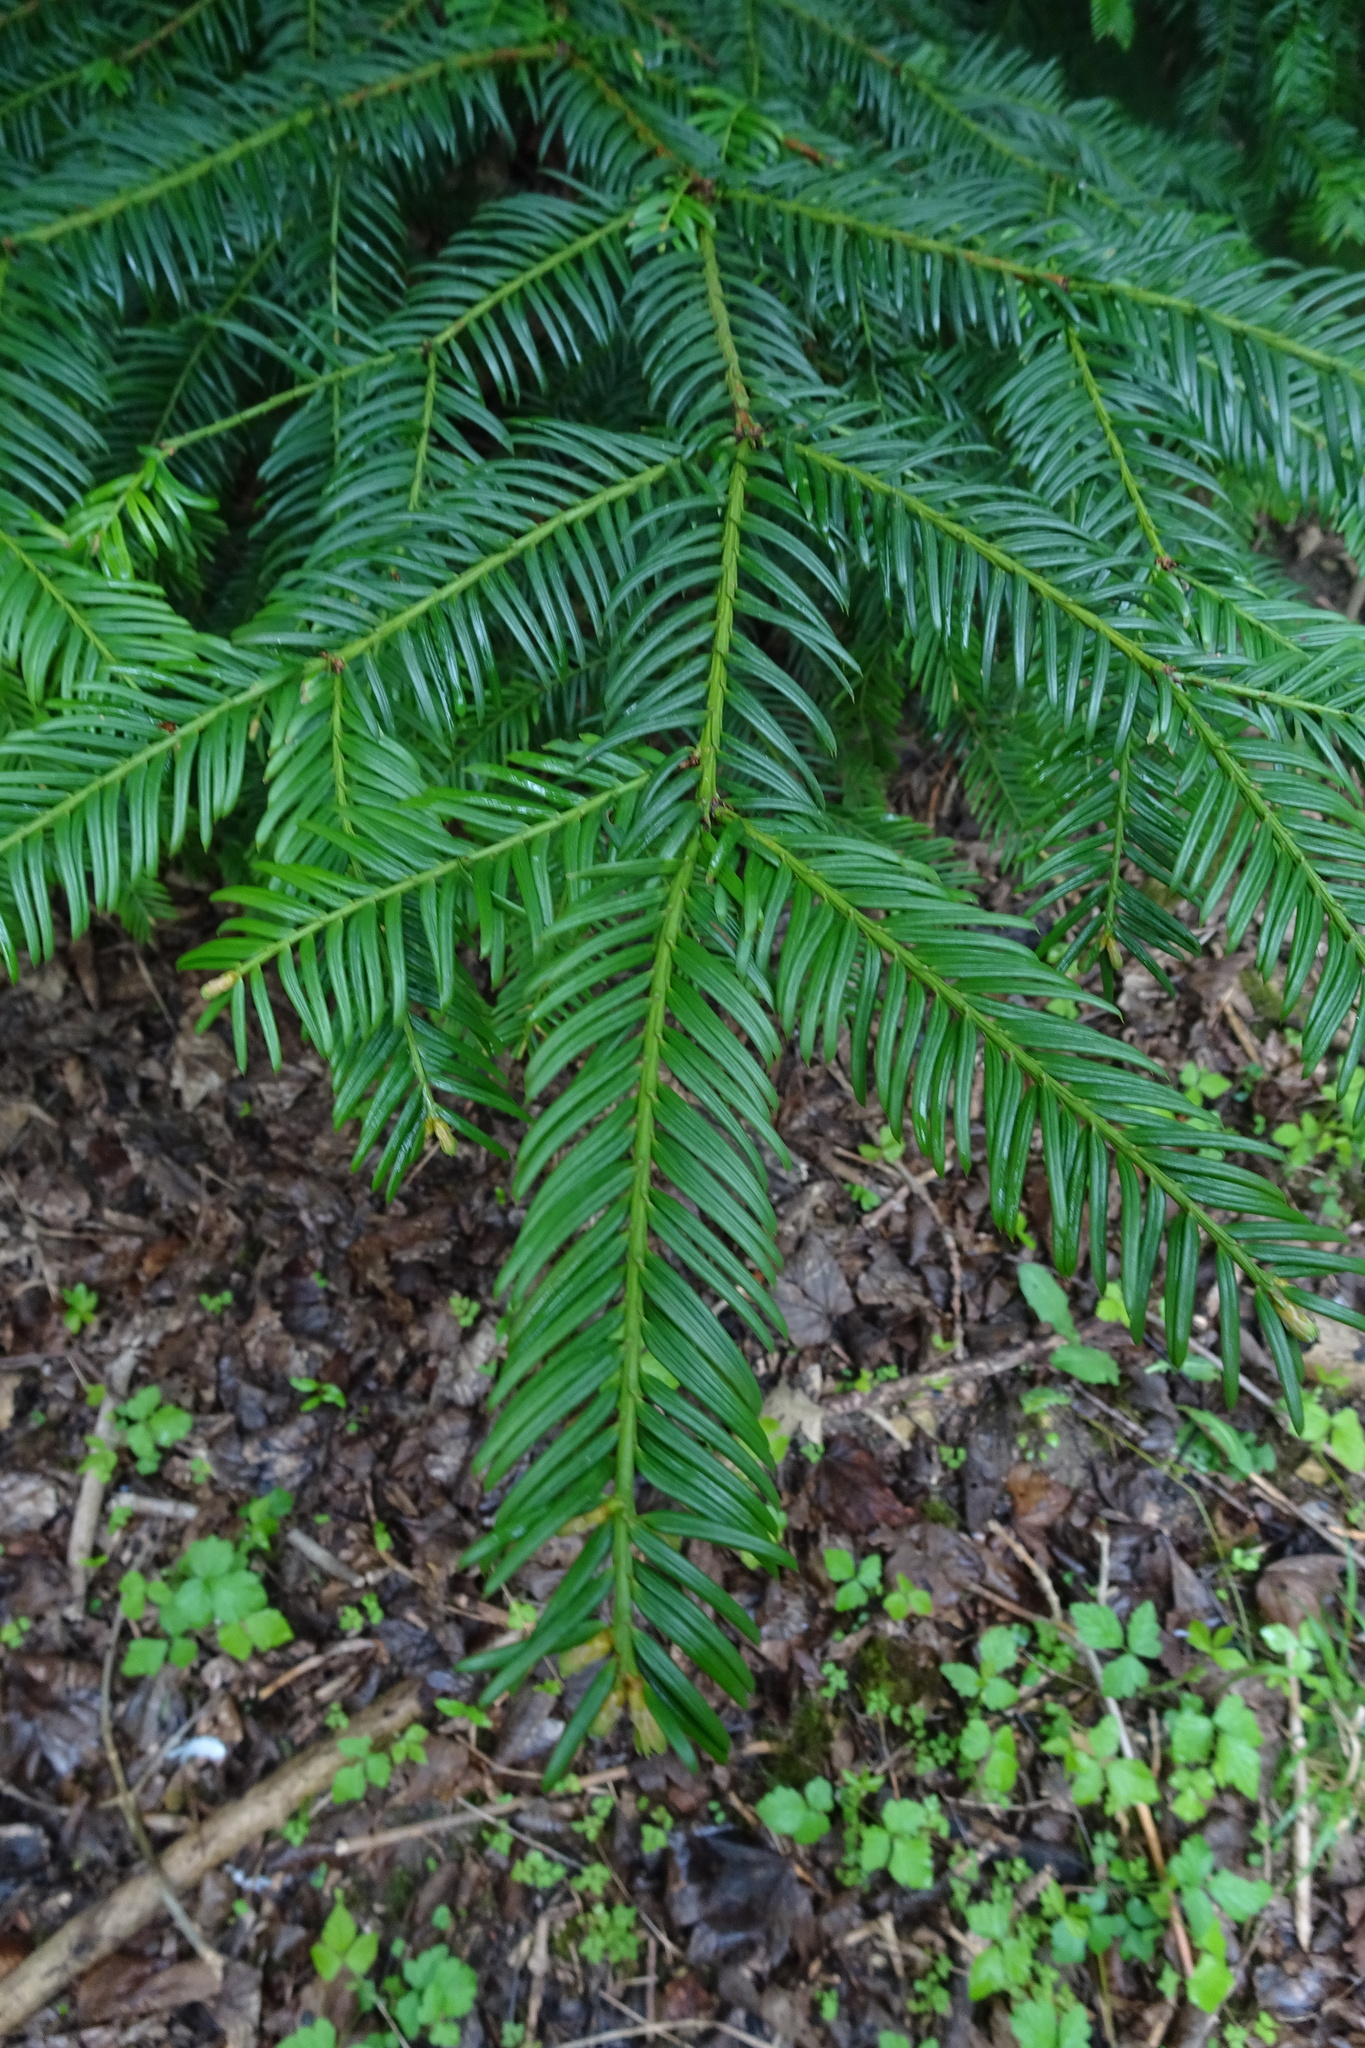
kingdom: Plantae
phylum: Tracheophyta
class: Pinopsida
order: Pinales
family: Taxaceae
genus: Taxus
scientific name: Taxus baccata
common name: Yew
